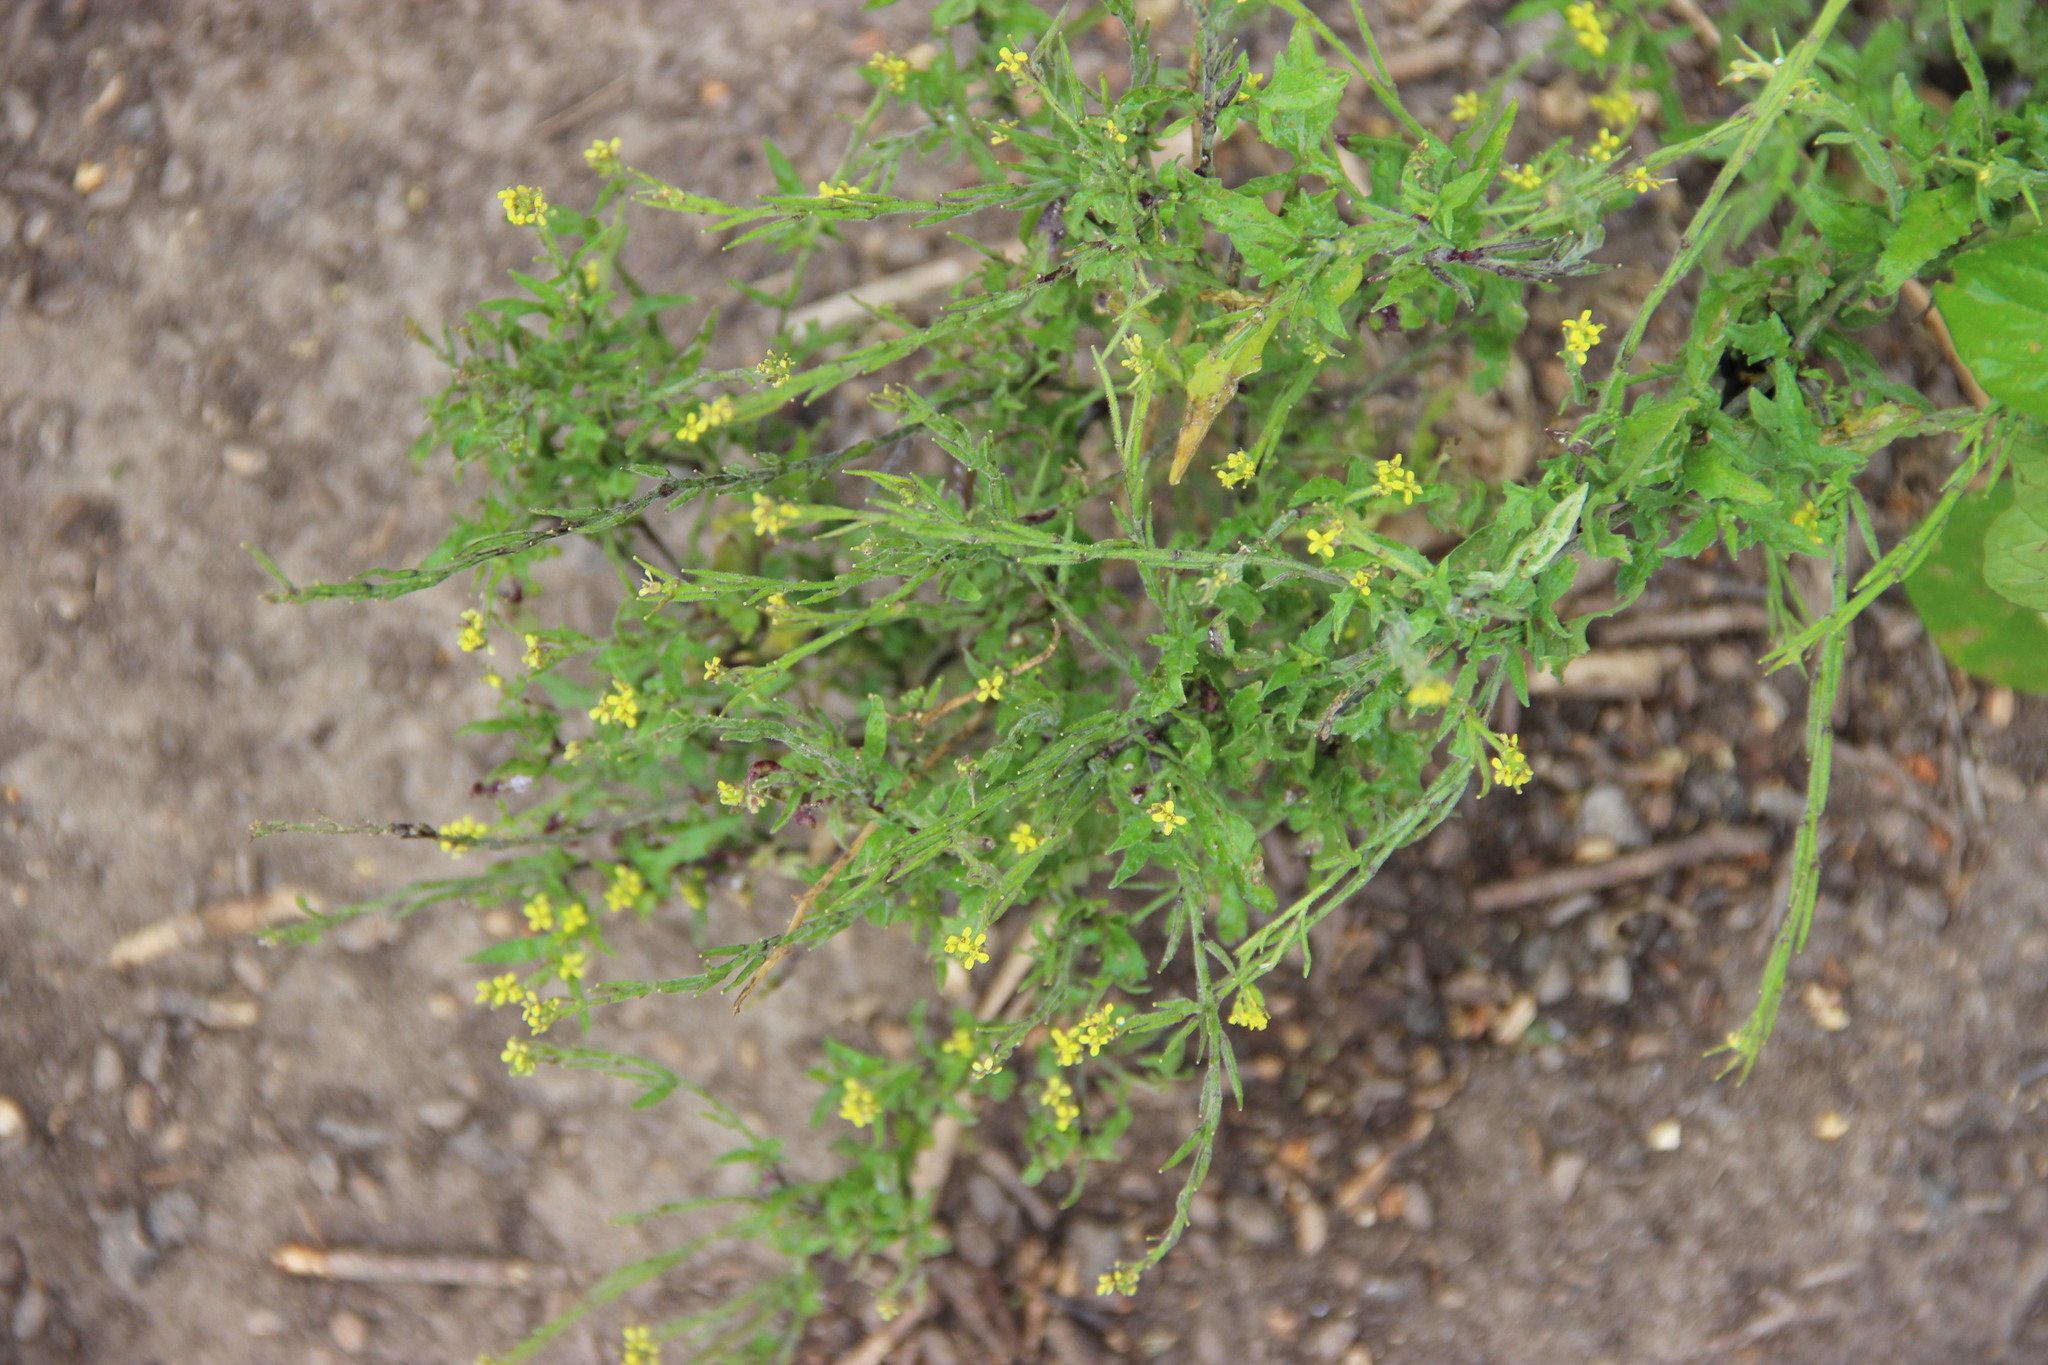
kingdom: Plantae
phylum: Tracheophyta
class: Magnoliopsida
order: Brassicales
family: Brassicaceae
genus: Sisymbrium
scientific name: Sisymbrium officinale
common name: Hedge mustard
